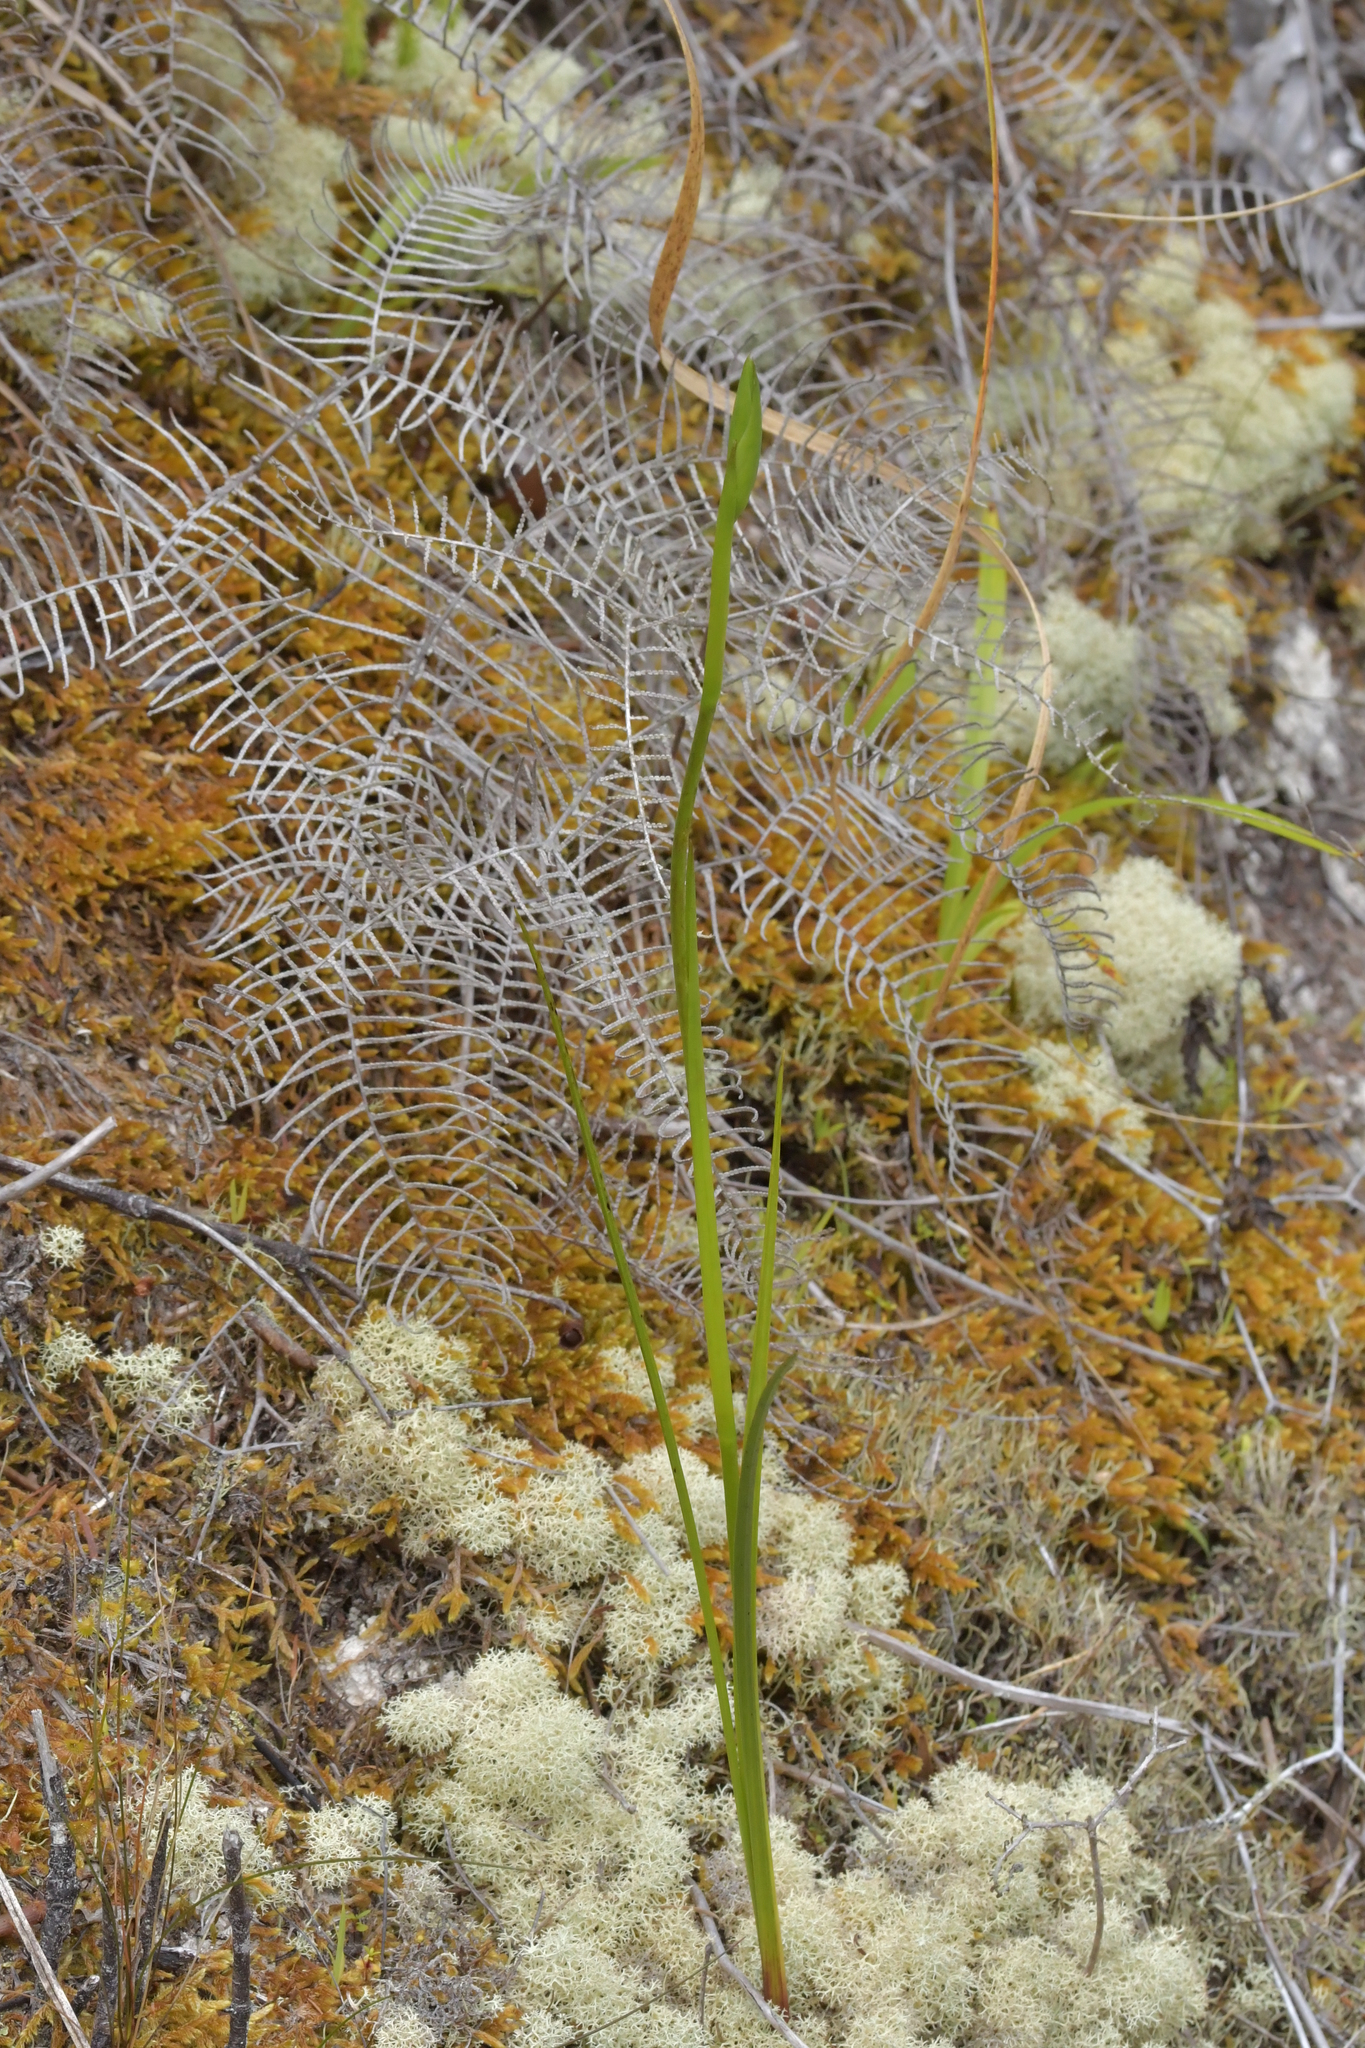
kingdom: Plantae
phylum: Tracheophyta
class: Liliopsida
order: Asparagales
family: Orchidaceae
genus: Orthoceras
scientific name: Orthoceras novae-zeelandiae
